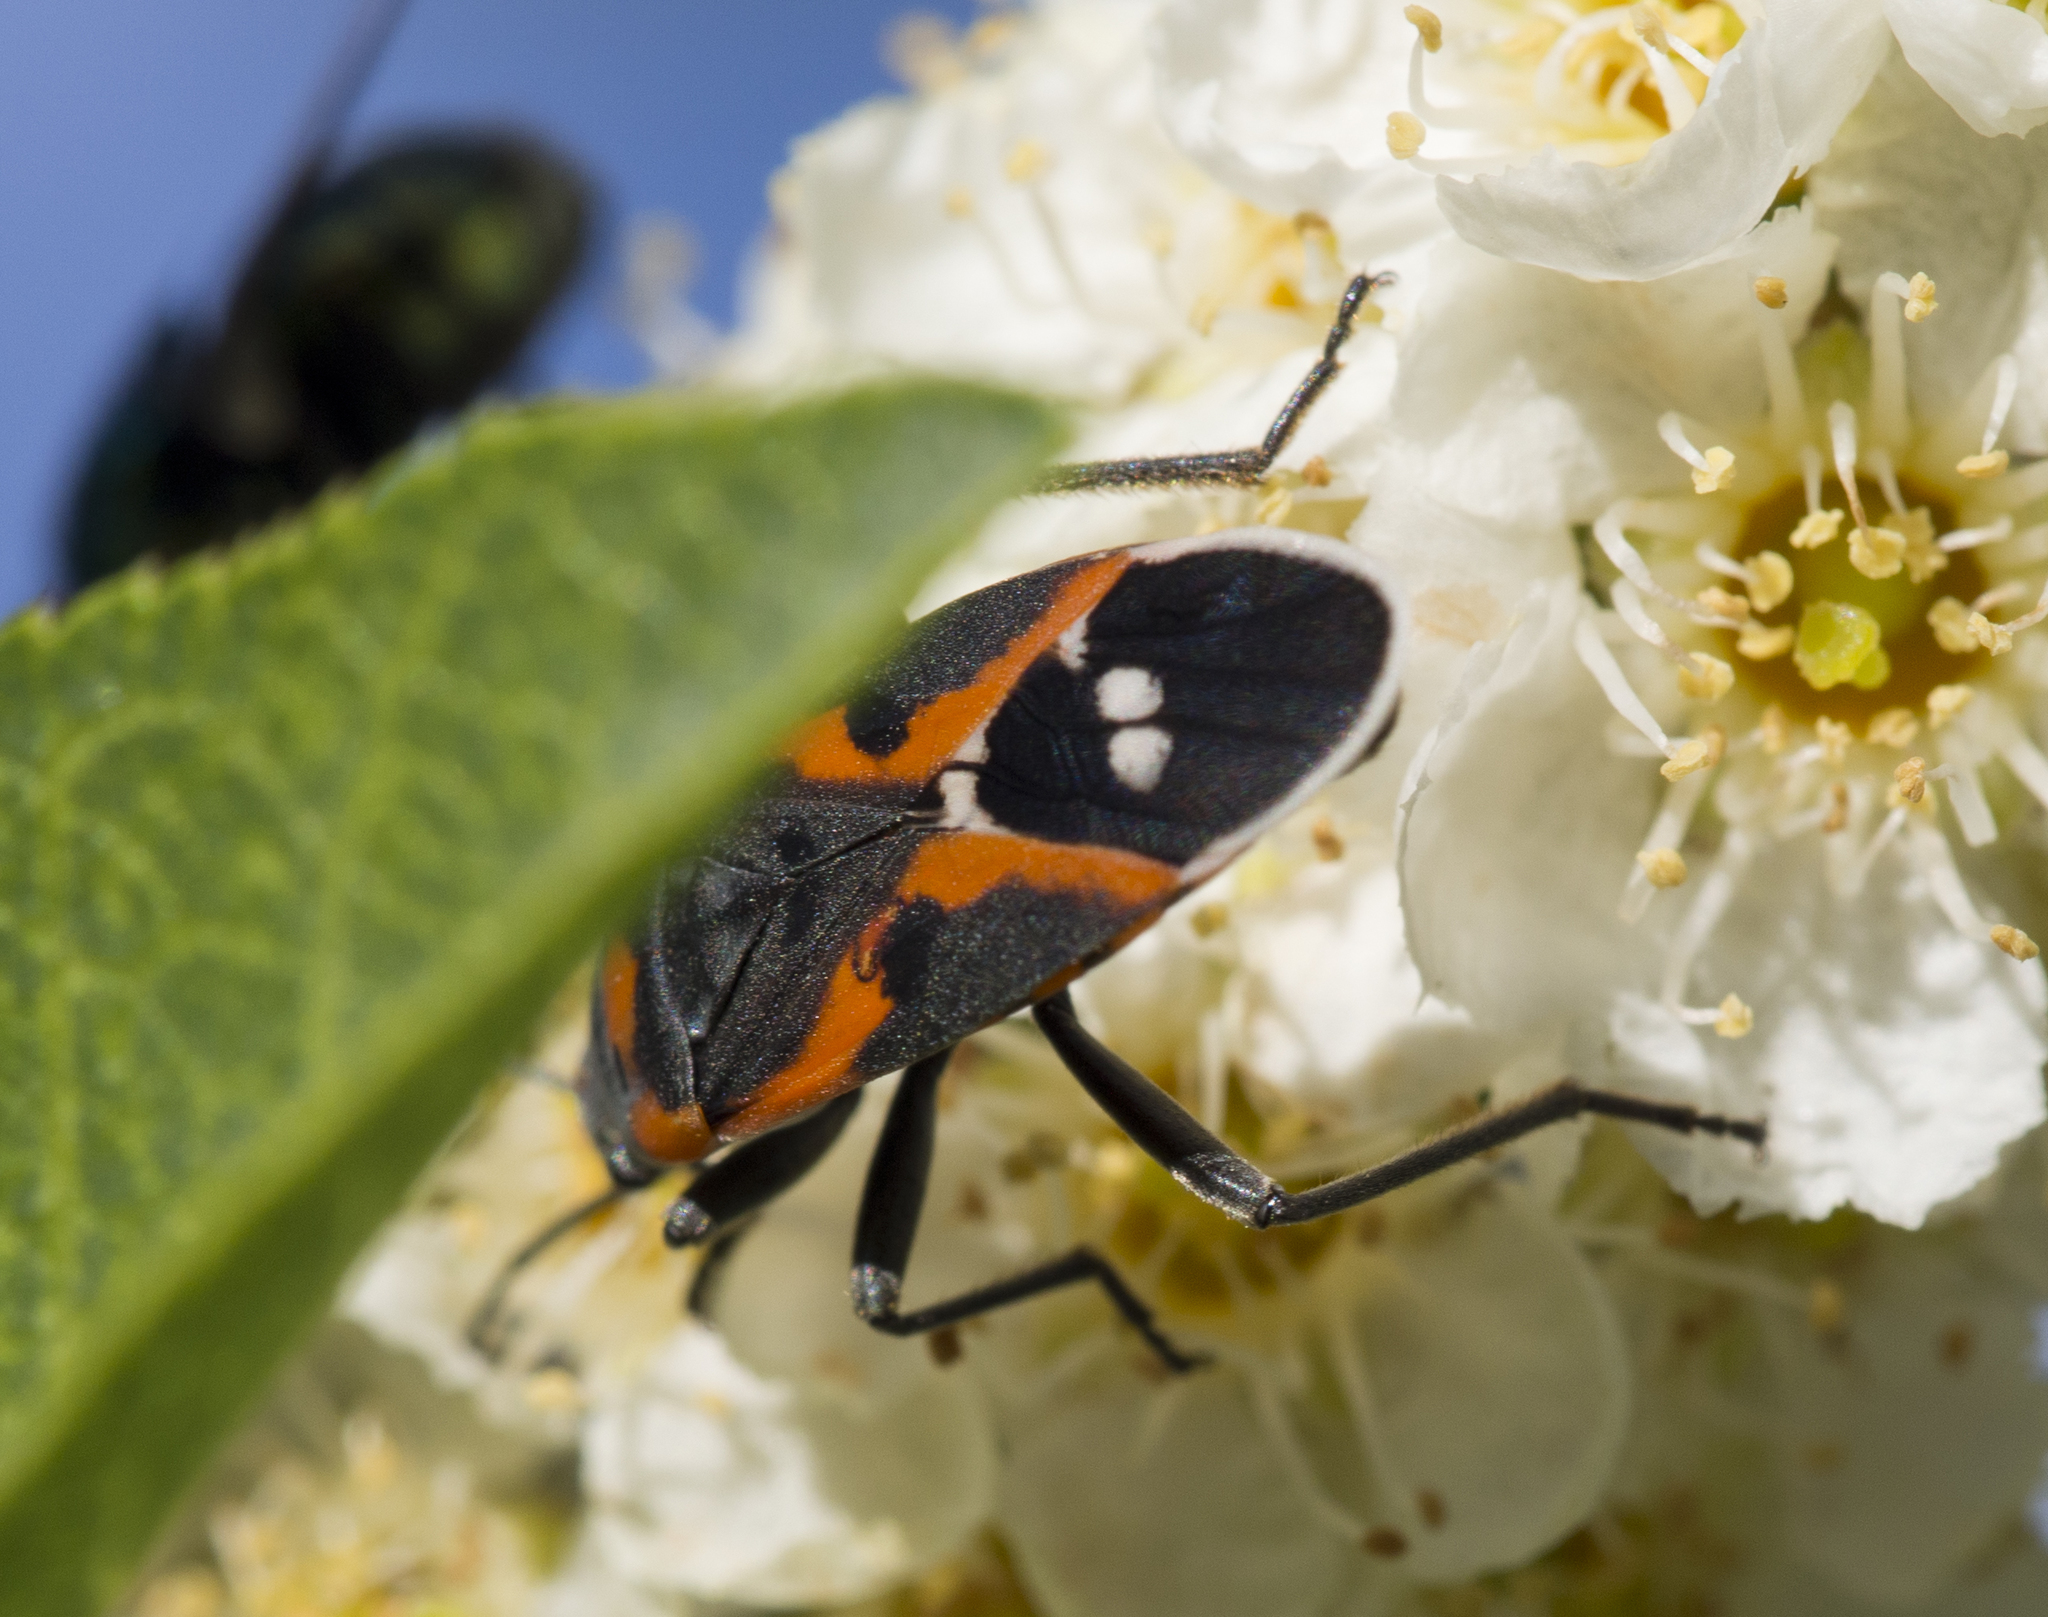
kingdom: Animalia
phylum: Arthropoda
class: Insecta
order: Hemiptera
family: Lygaeidae
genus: Lygaeus
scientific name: Lygaeus kalmii
